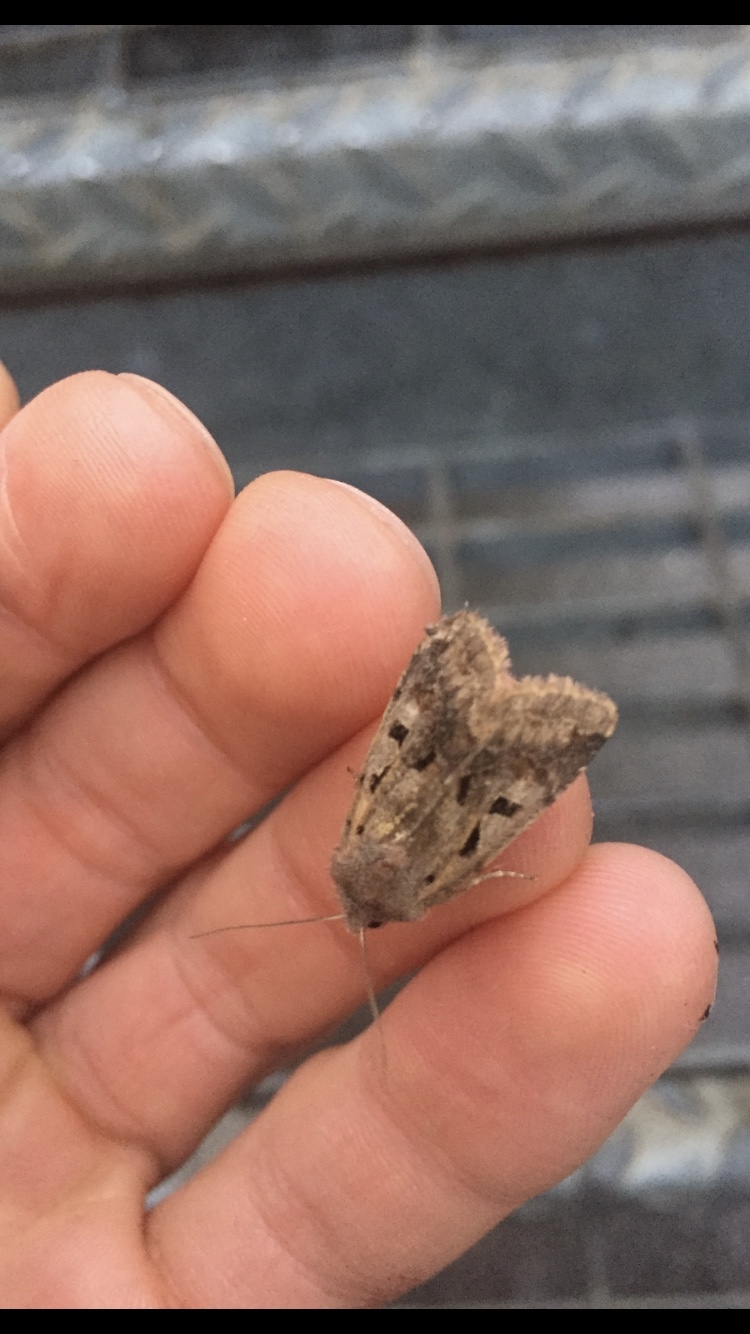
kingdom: Animalia
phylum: Arthropoda
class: Insecta
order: Lepidoptera
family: Noctuidae
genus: Orthosia
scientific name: Orthosia gothica
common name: Hebrew character
